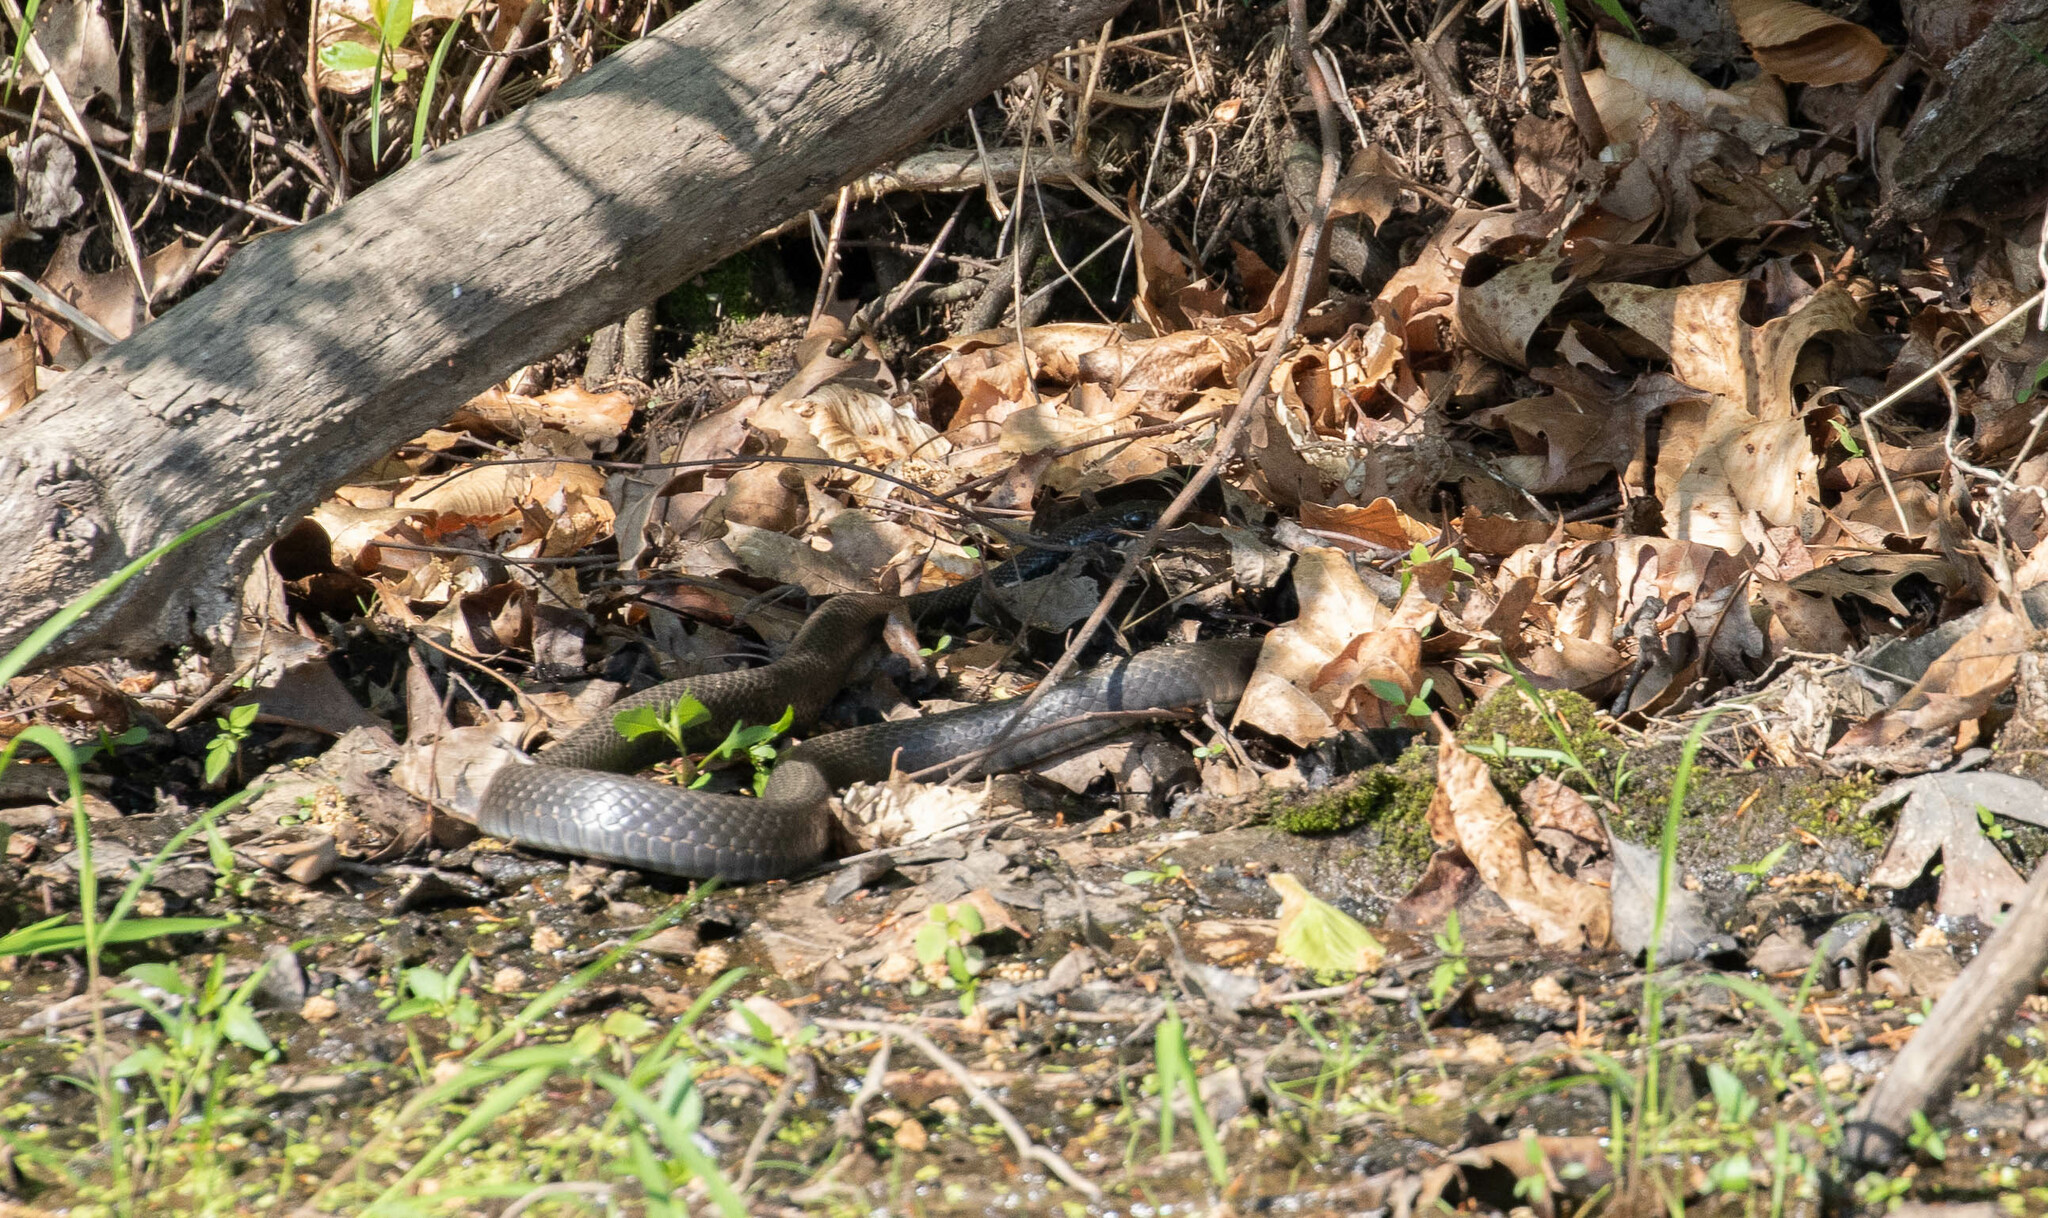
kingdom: Animalia
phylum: Chordata
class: Squamata
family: Colubridae
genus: Coluber
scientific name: Coluber constrictor
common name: Eastern racer
